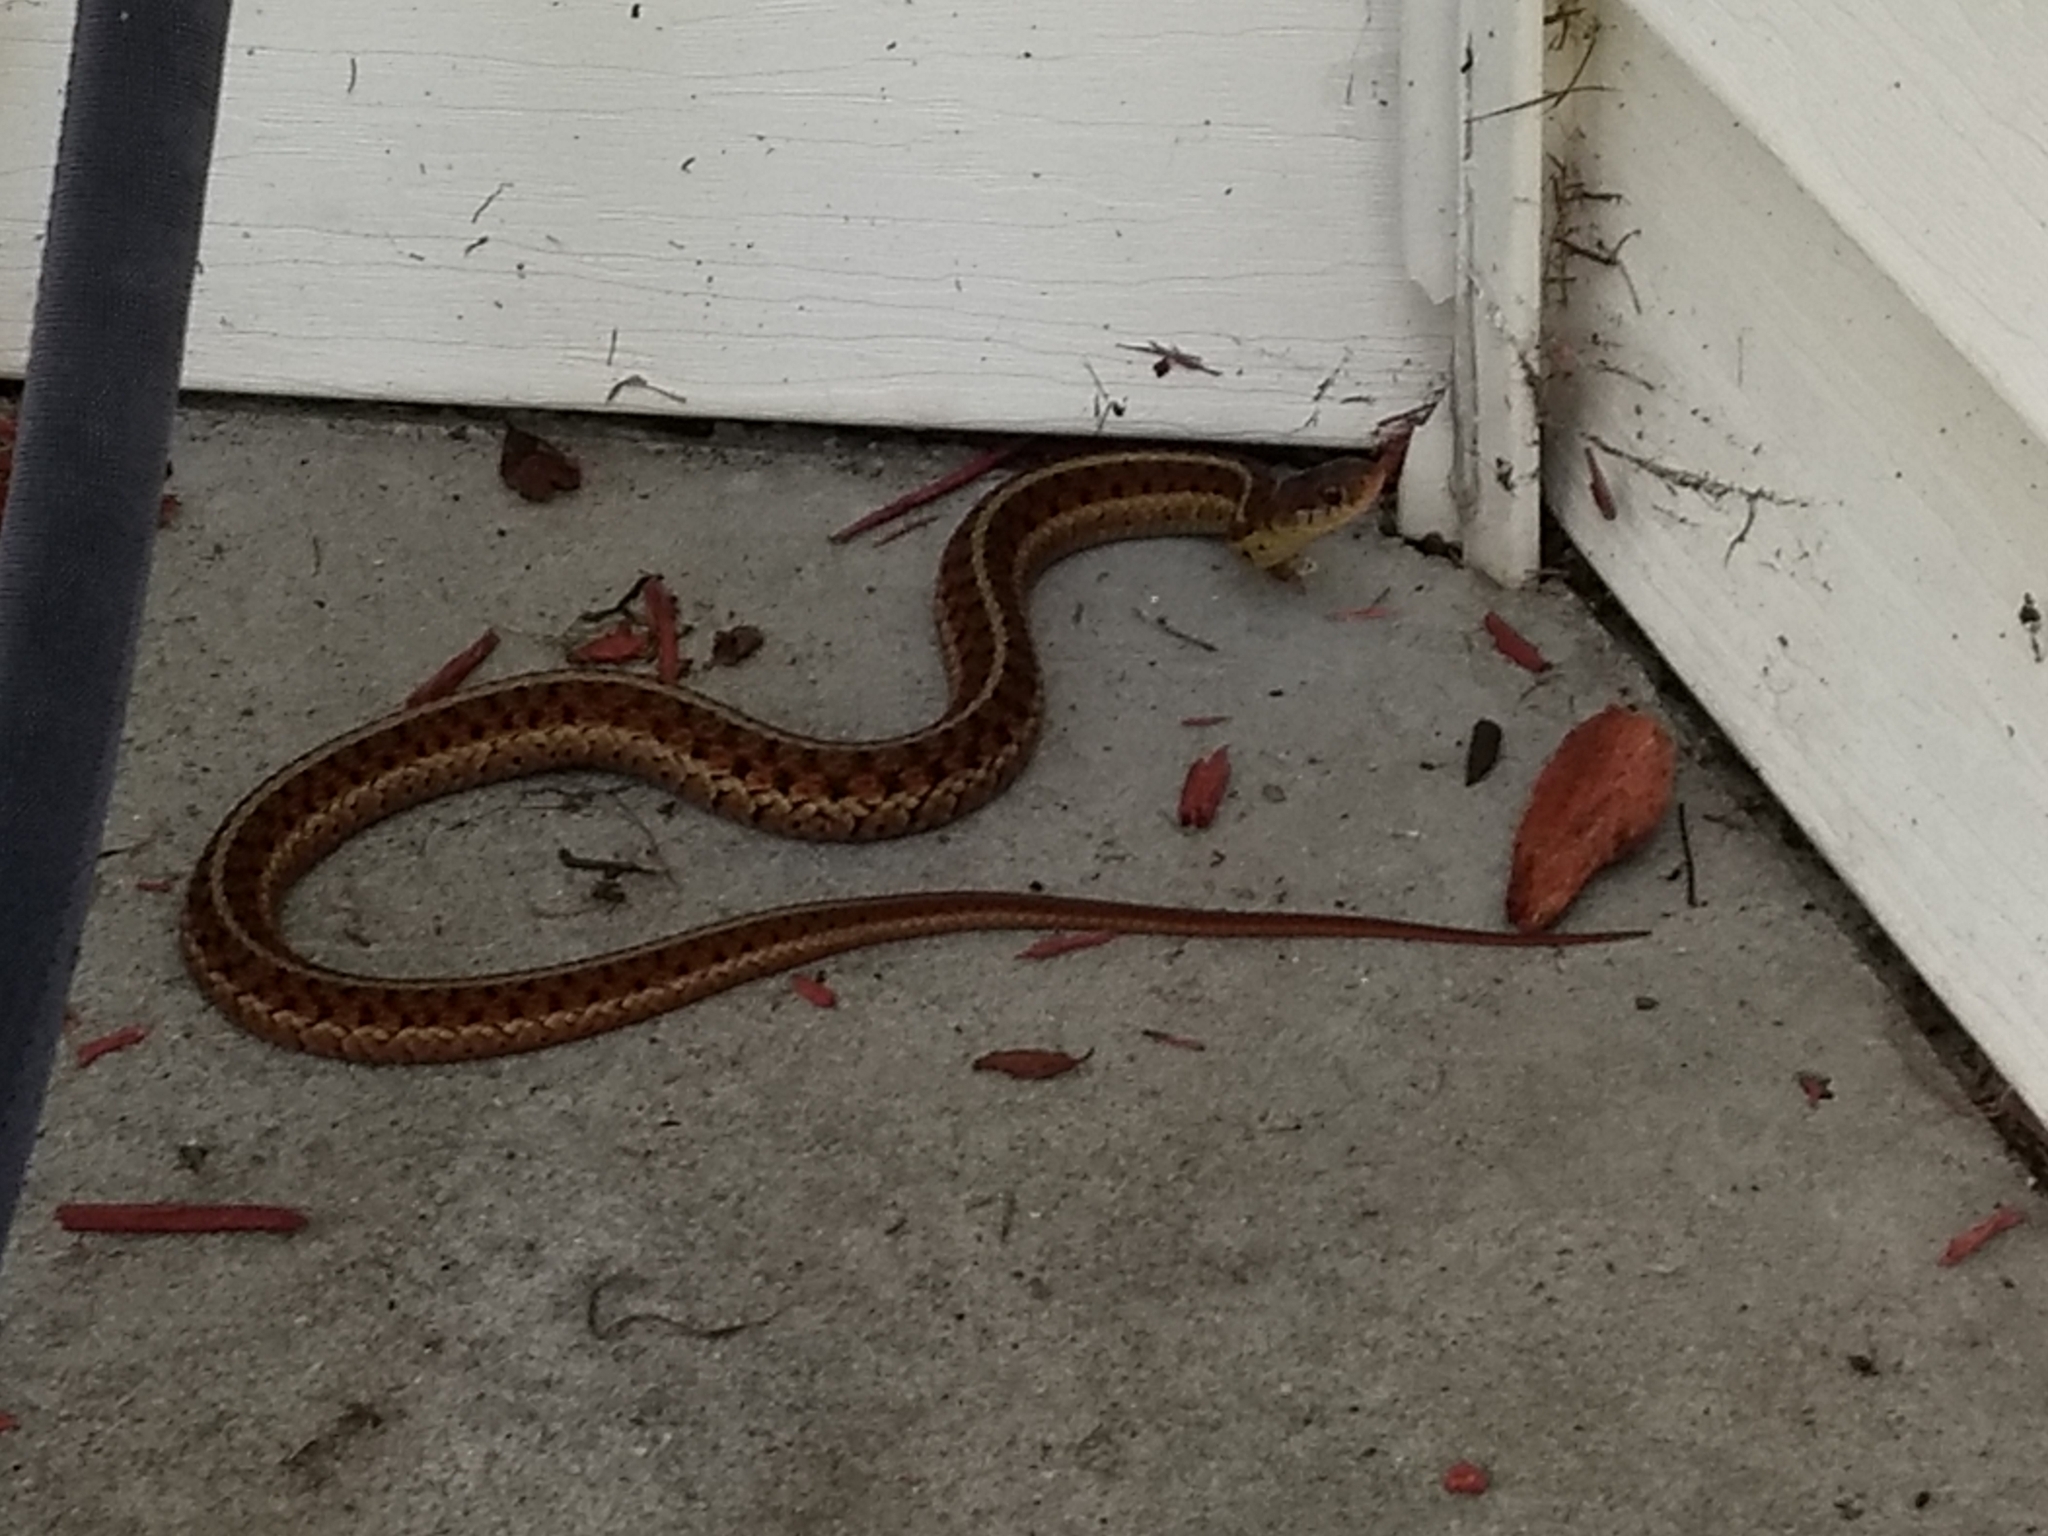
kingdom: Animalia
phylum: Chordata
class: Squamata
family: Colubridae
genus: Thamnophis
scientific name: Thamnophis sirtalis
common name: Common garter snake
